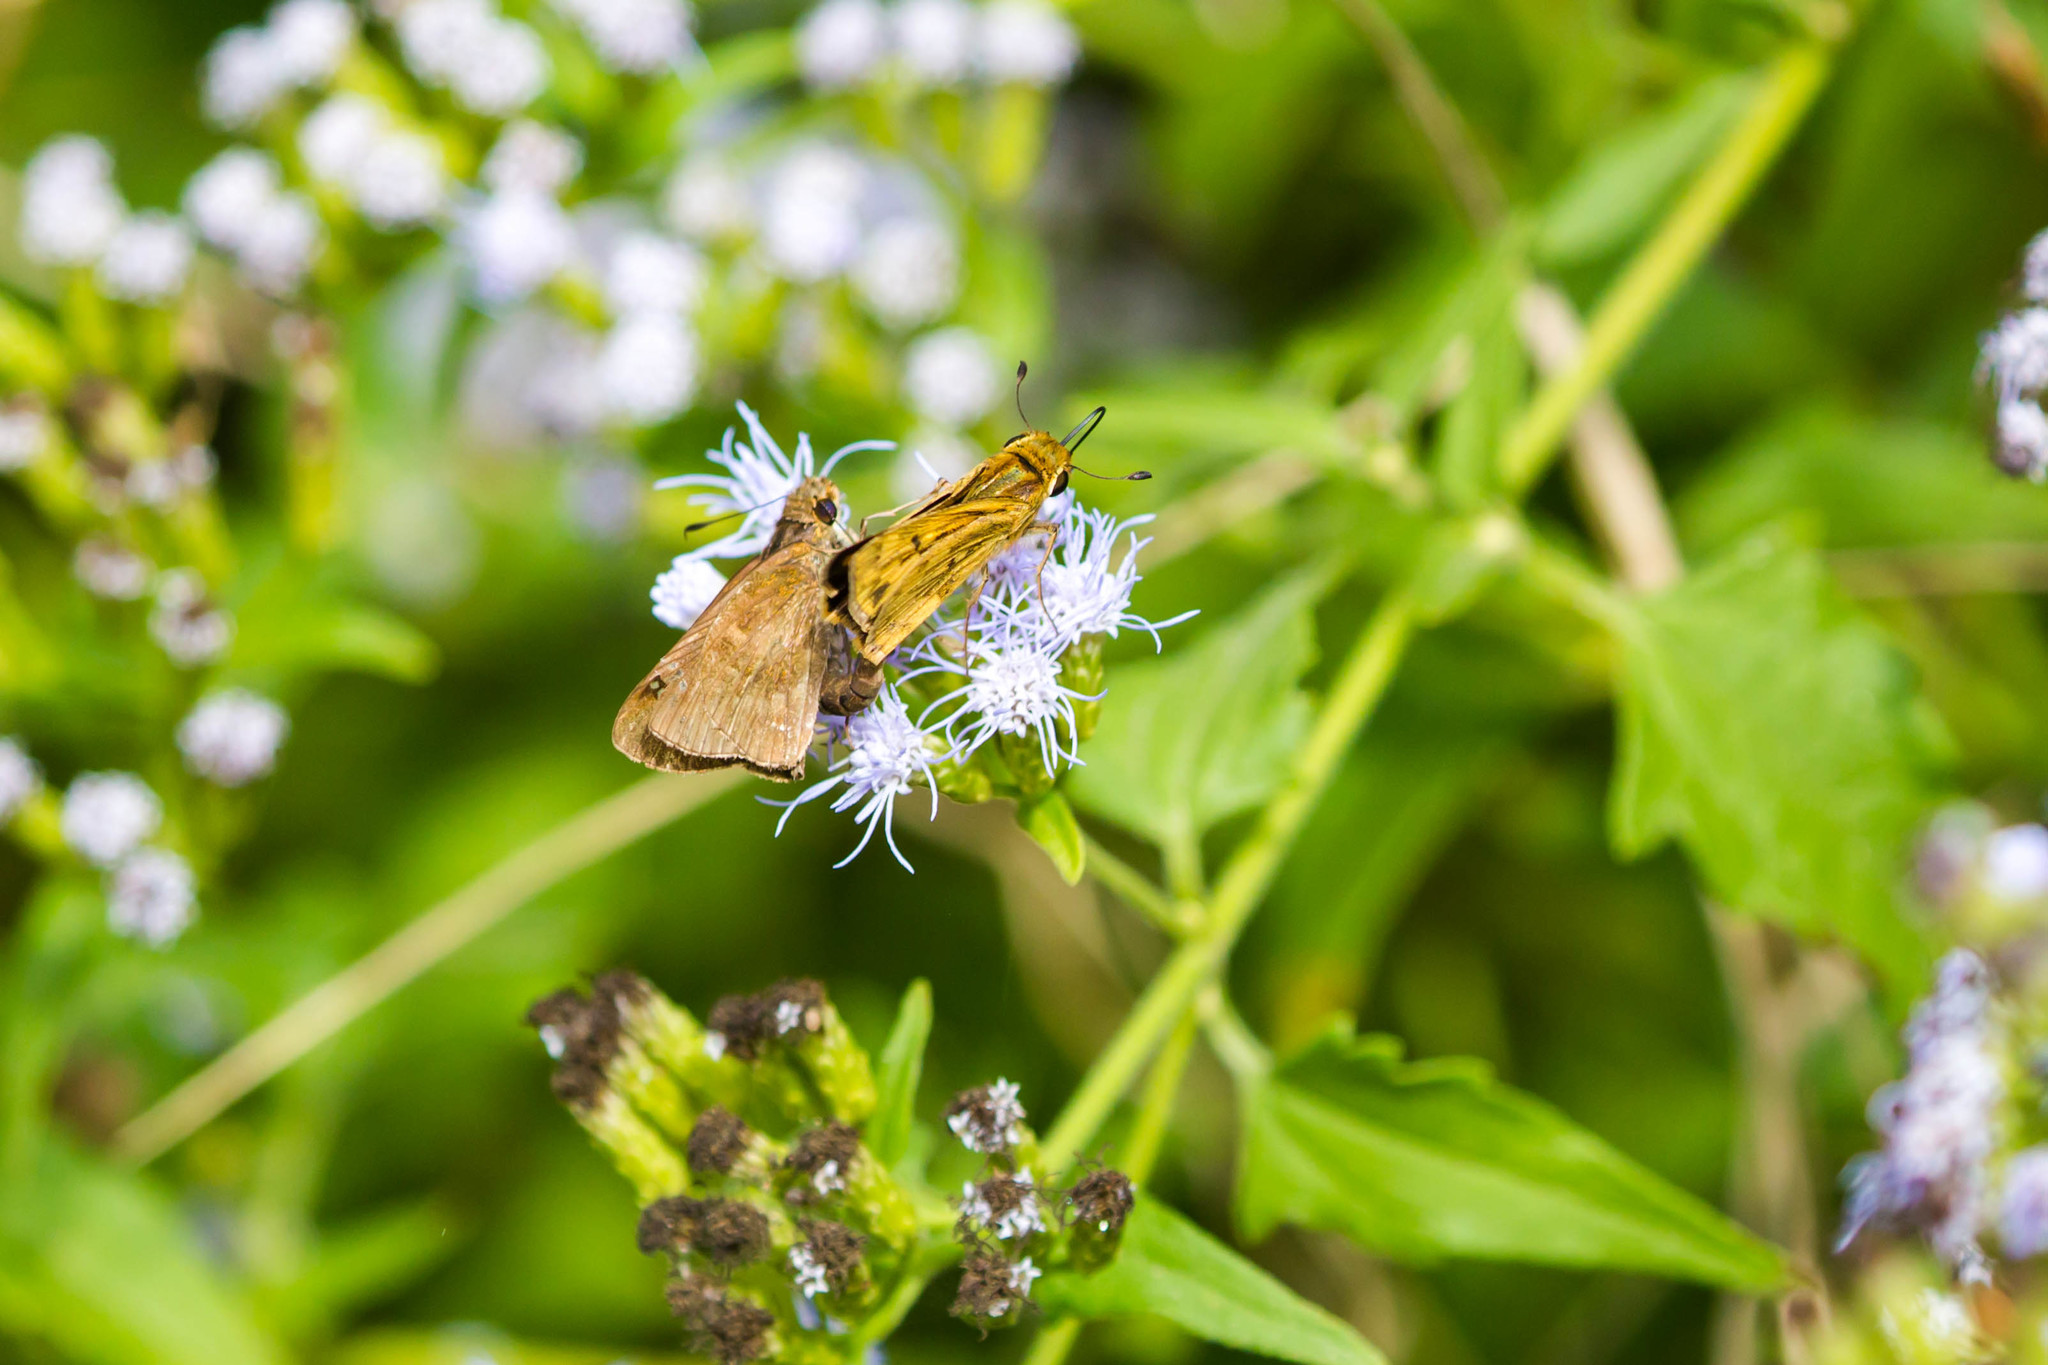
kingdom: Animalia
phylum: Arthropoda
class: Insecta
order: Lepidoptera
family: Hesperiidae
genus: Lerema
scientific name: Lerema accius
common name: Clouded skipper
